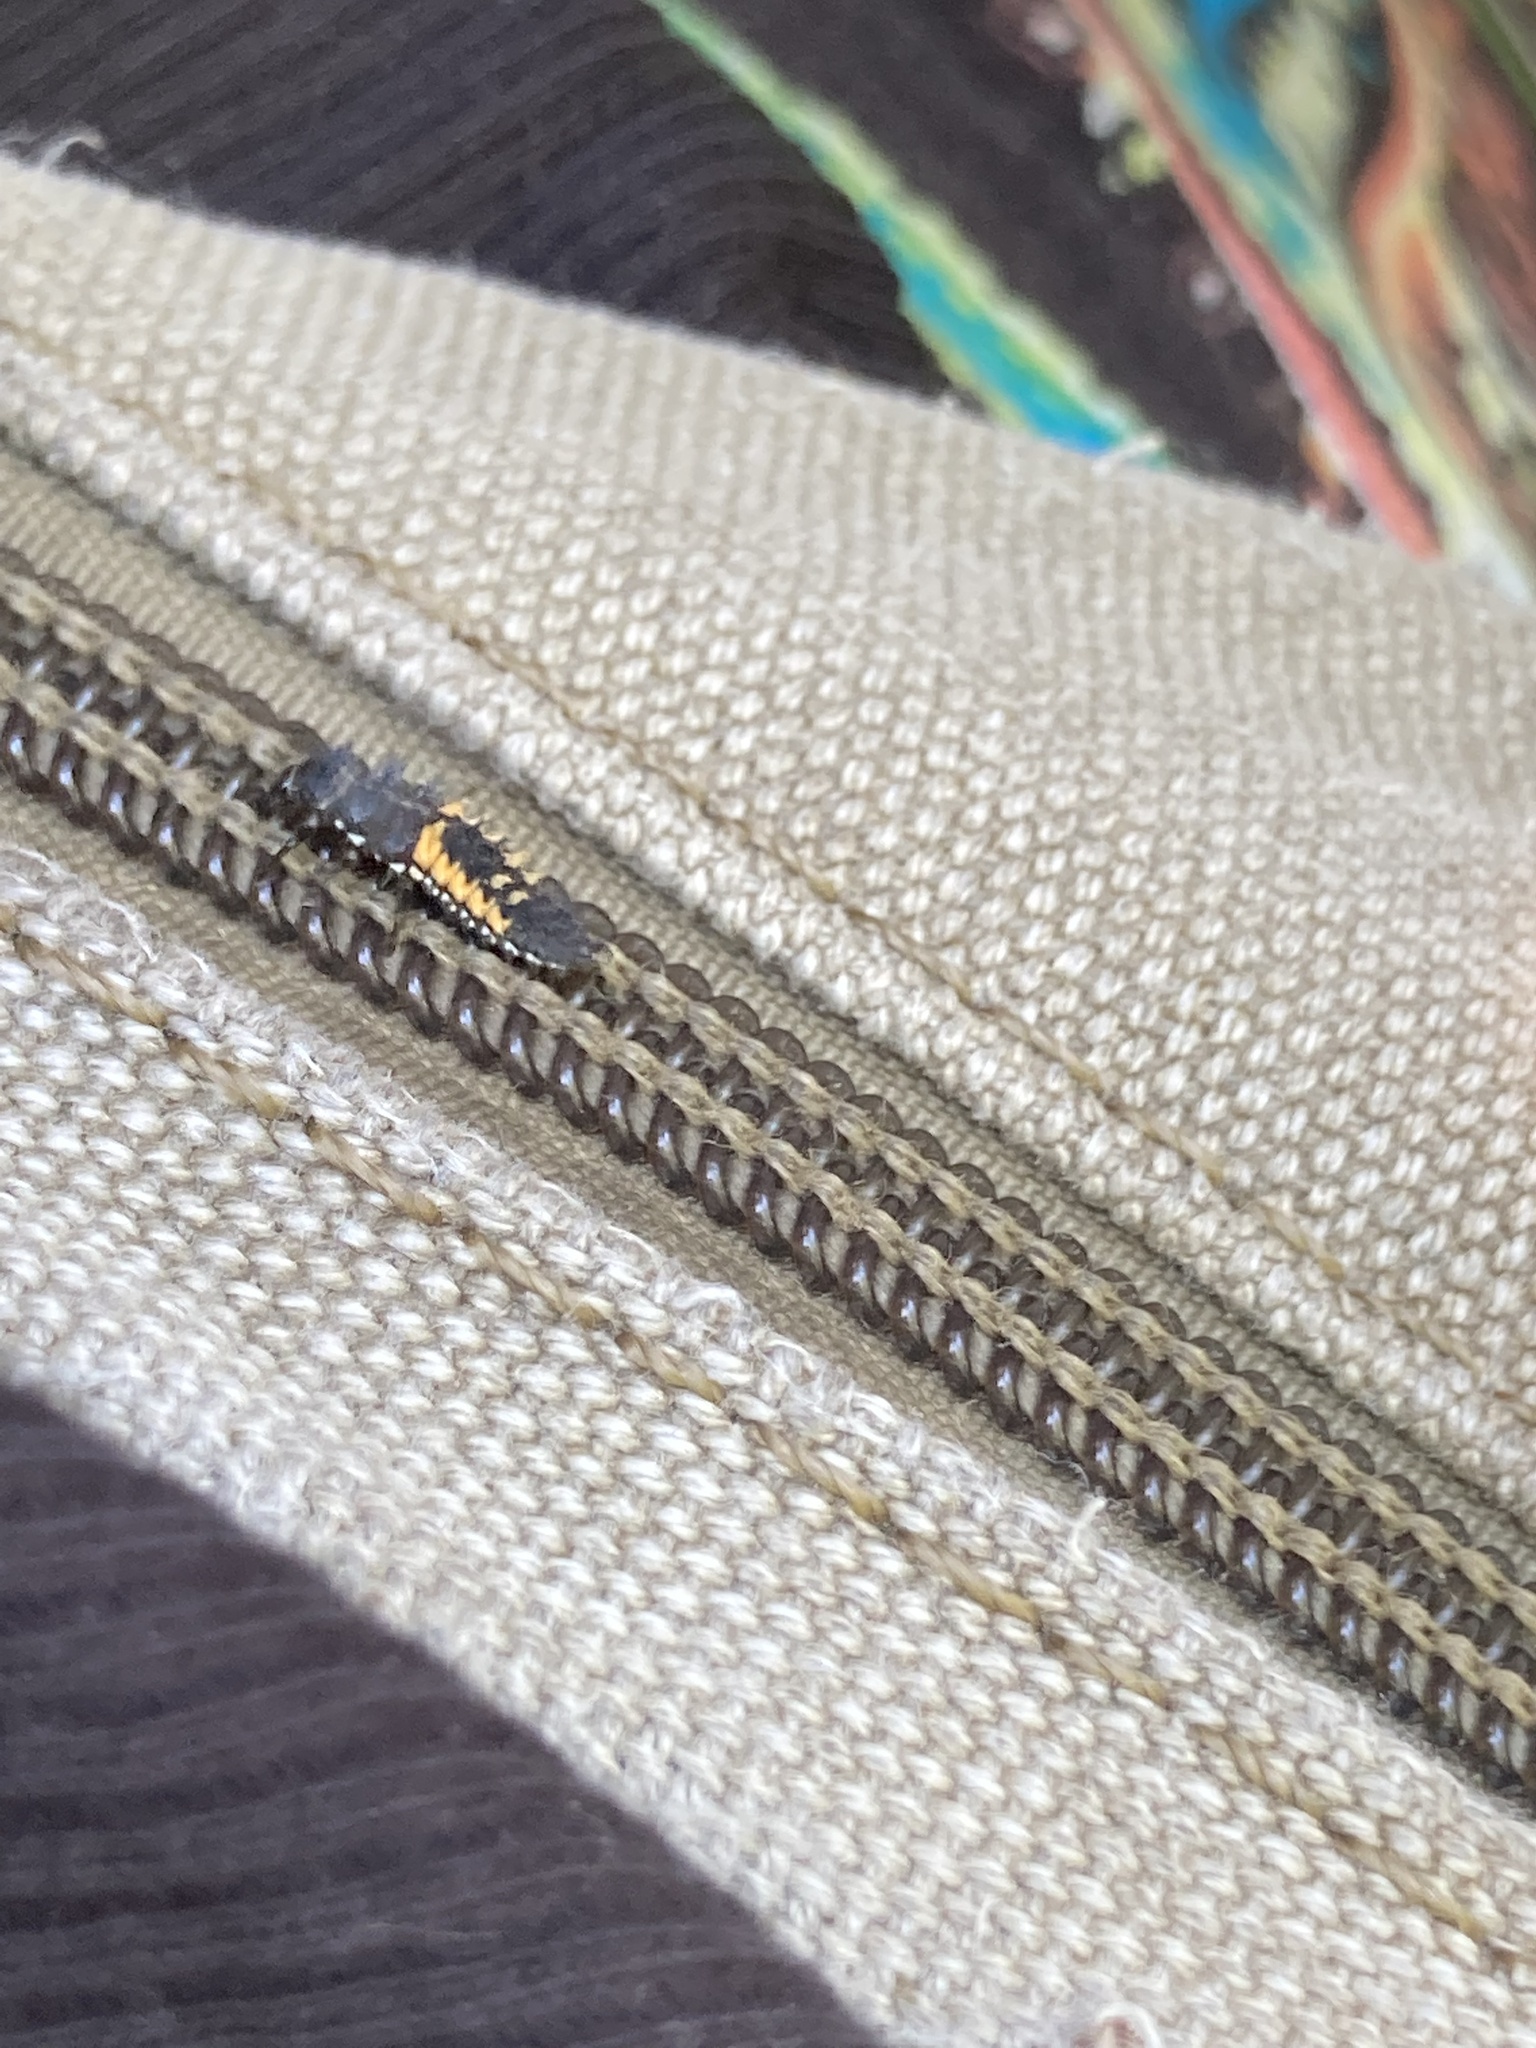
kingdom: Animalia
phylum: Arthropoda
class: Insecta
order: Coleoptera
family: Coccinellidae
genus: Harmonia
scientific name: Harmonia axyridis
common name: Harlequin ladybird
